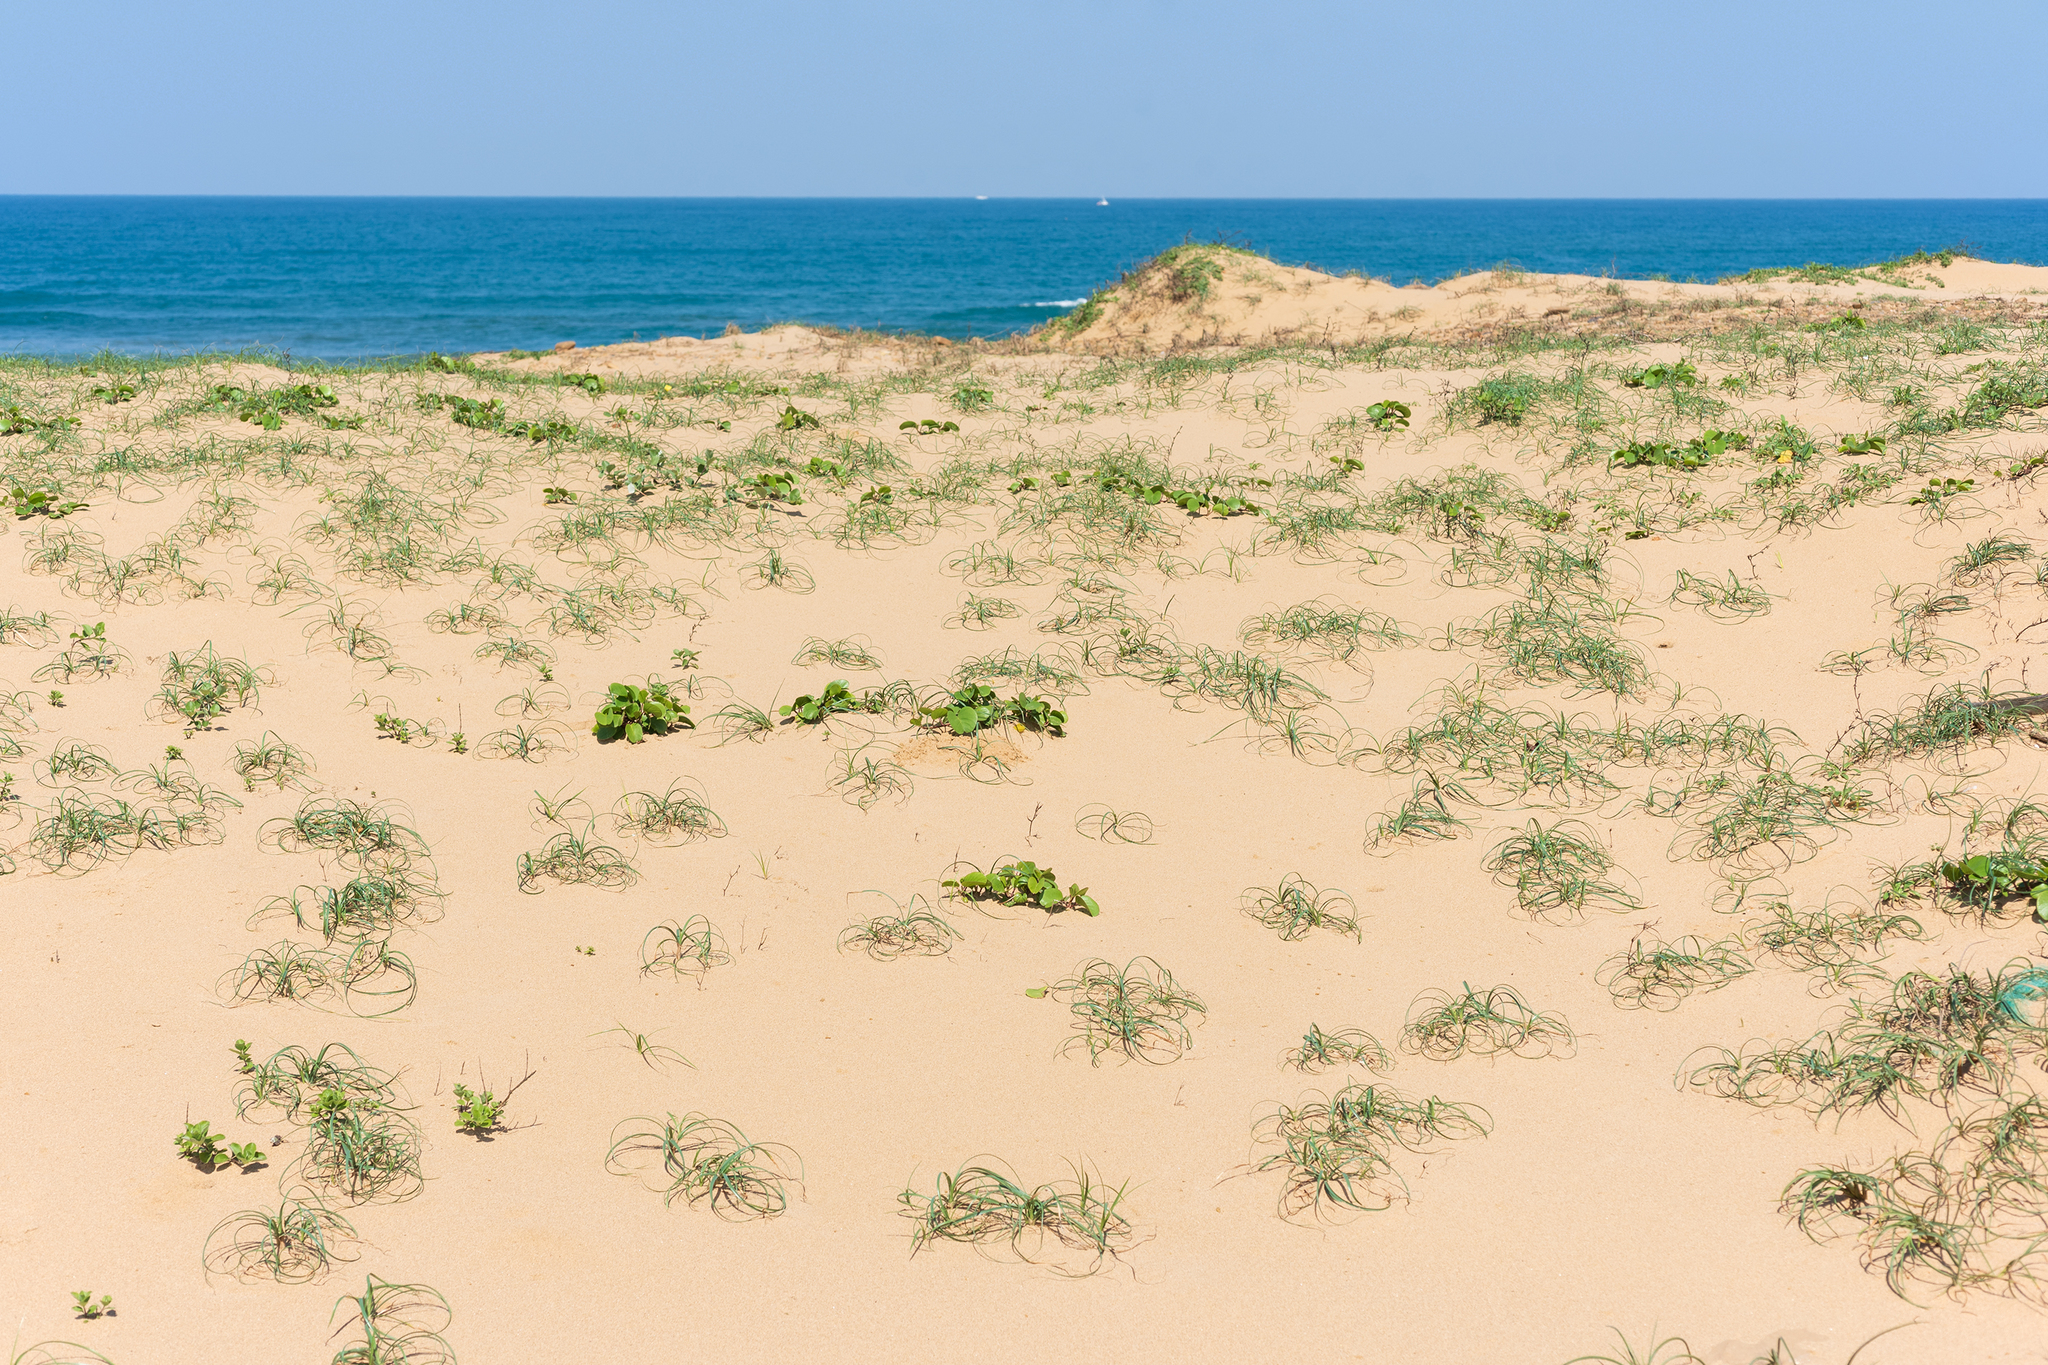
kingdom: Plantae
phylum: Tracheophyta
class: Liliopsida
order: Poales
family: Cyperaceae
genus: Carex
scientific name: Carex pumila
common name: Dwarf sedge
